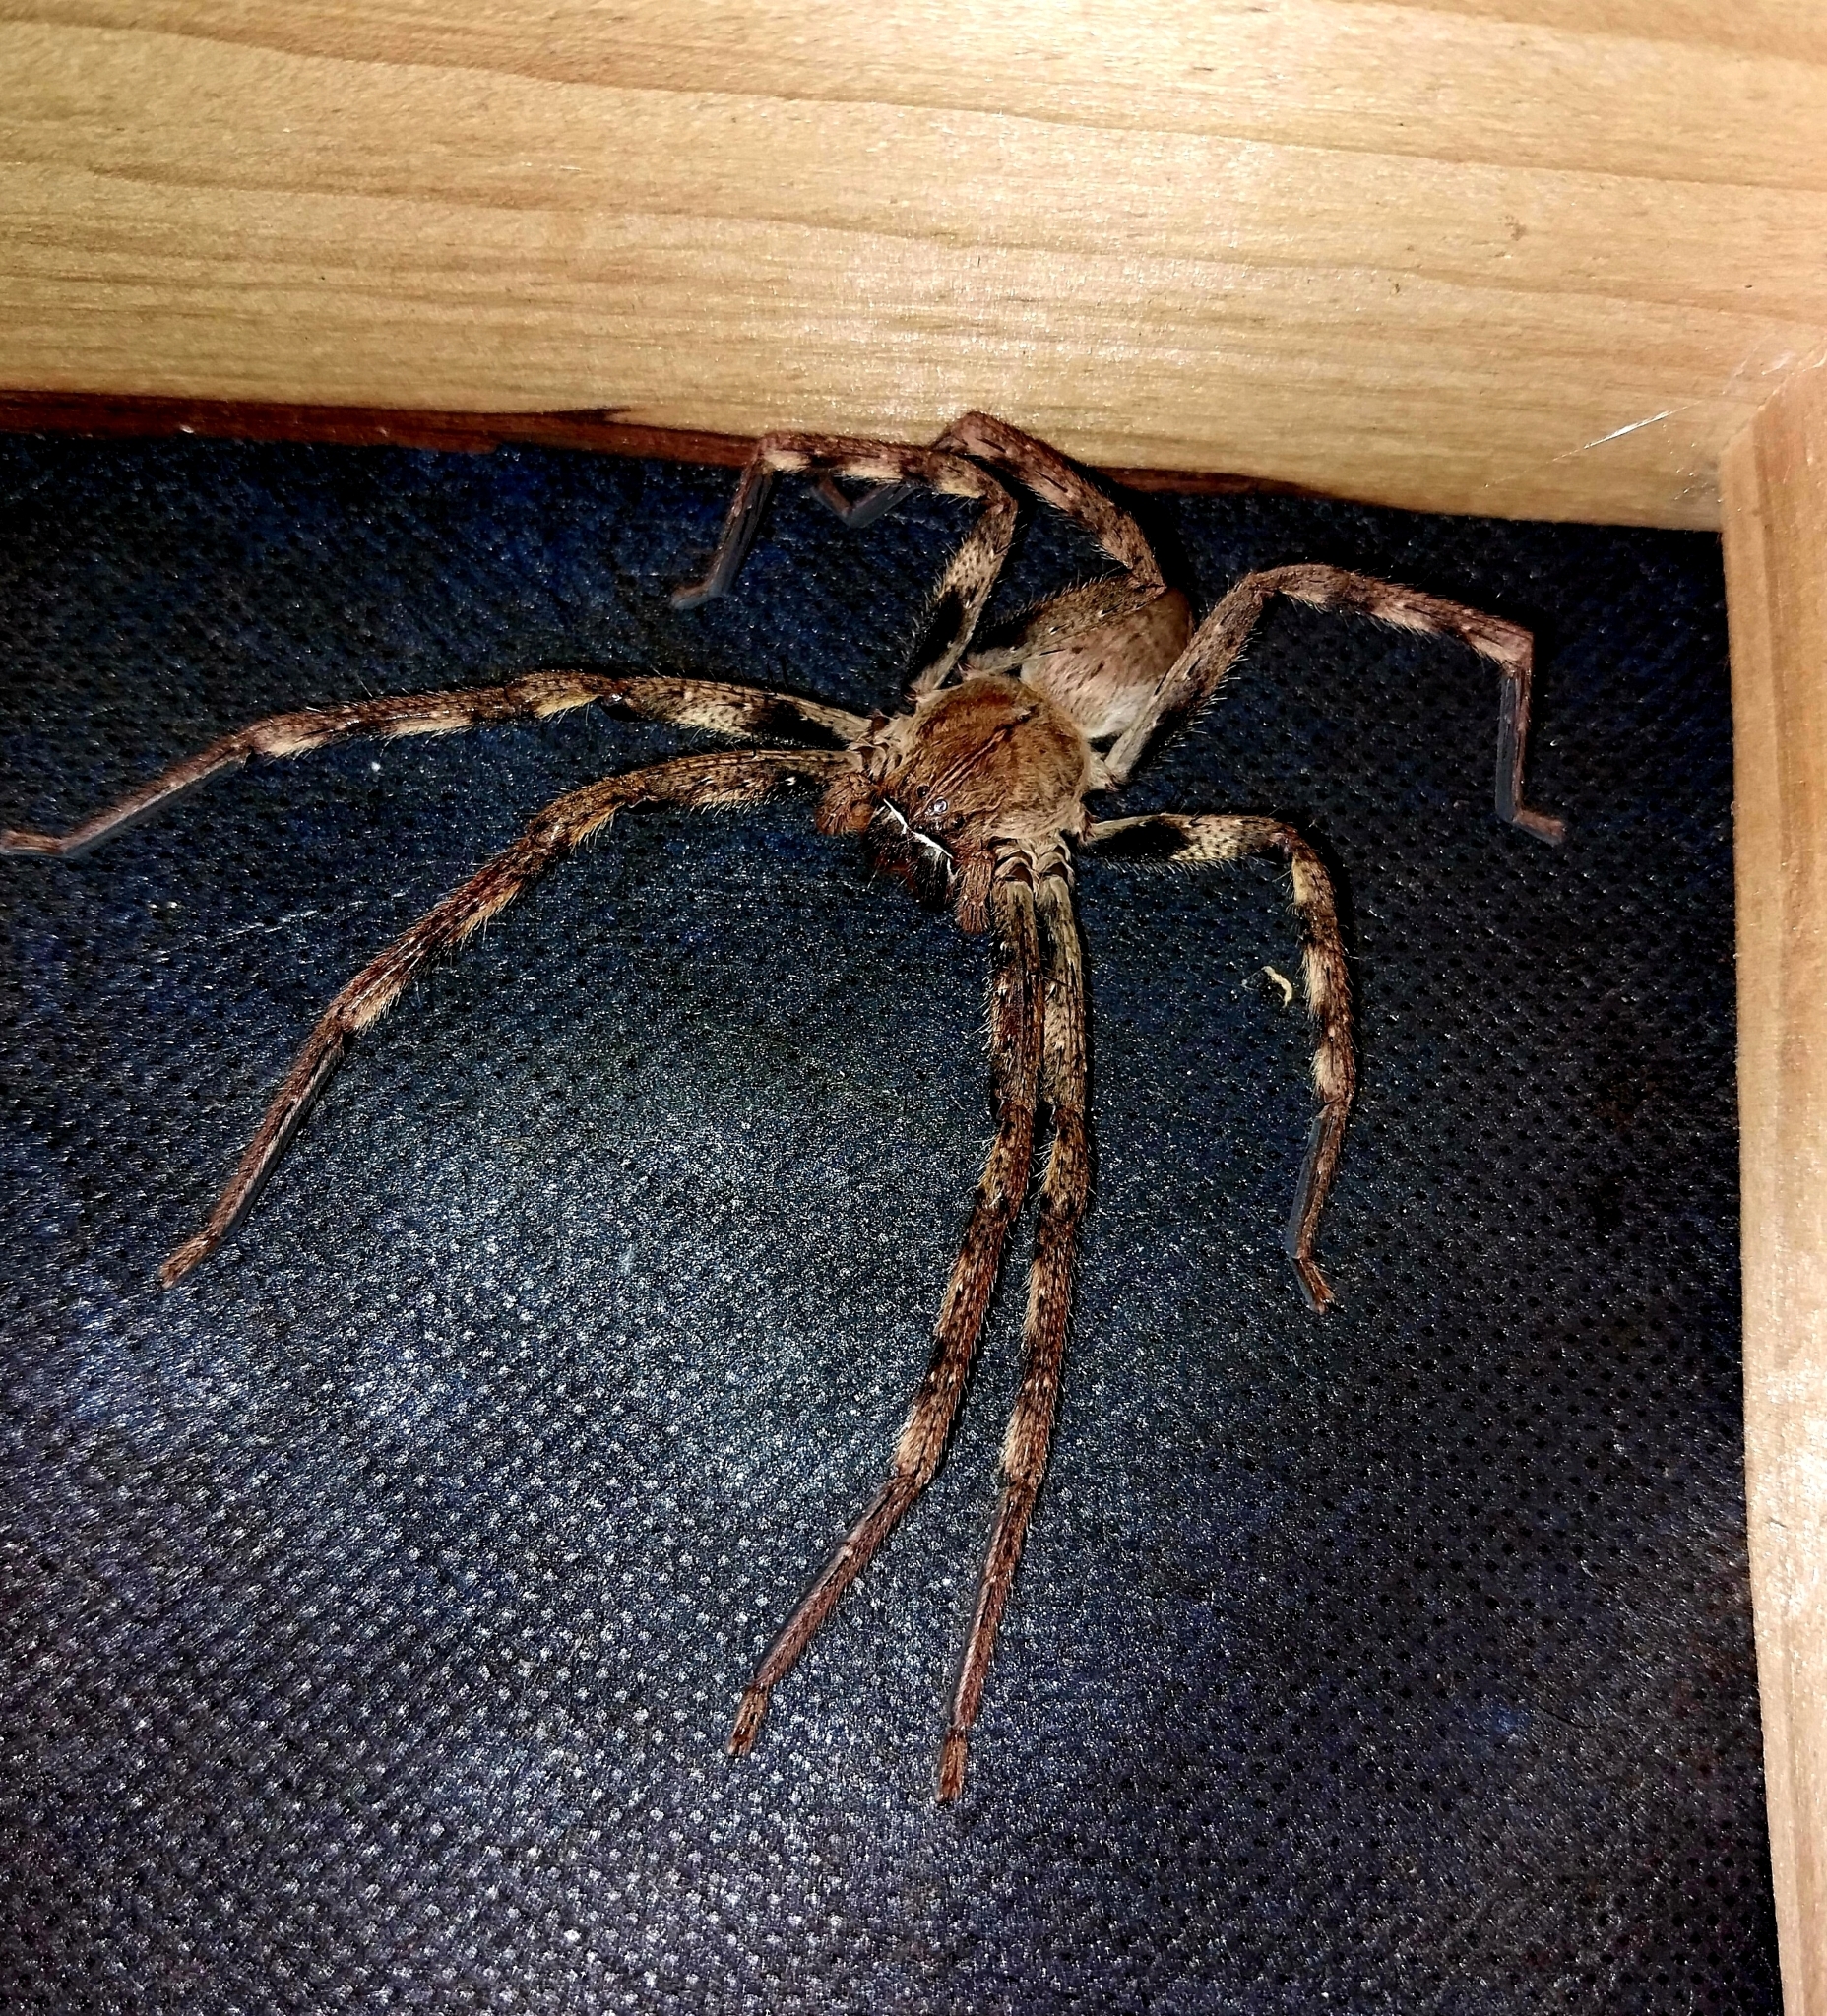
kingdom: Animalia
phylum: Arthropoda
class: Arachnida
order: Araneae
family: Sparassidae
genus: Palystes
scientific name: Palystes superciliosus
